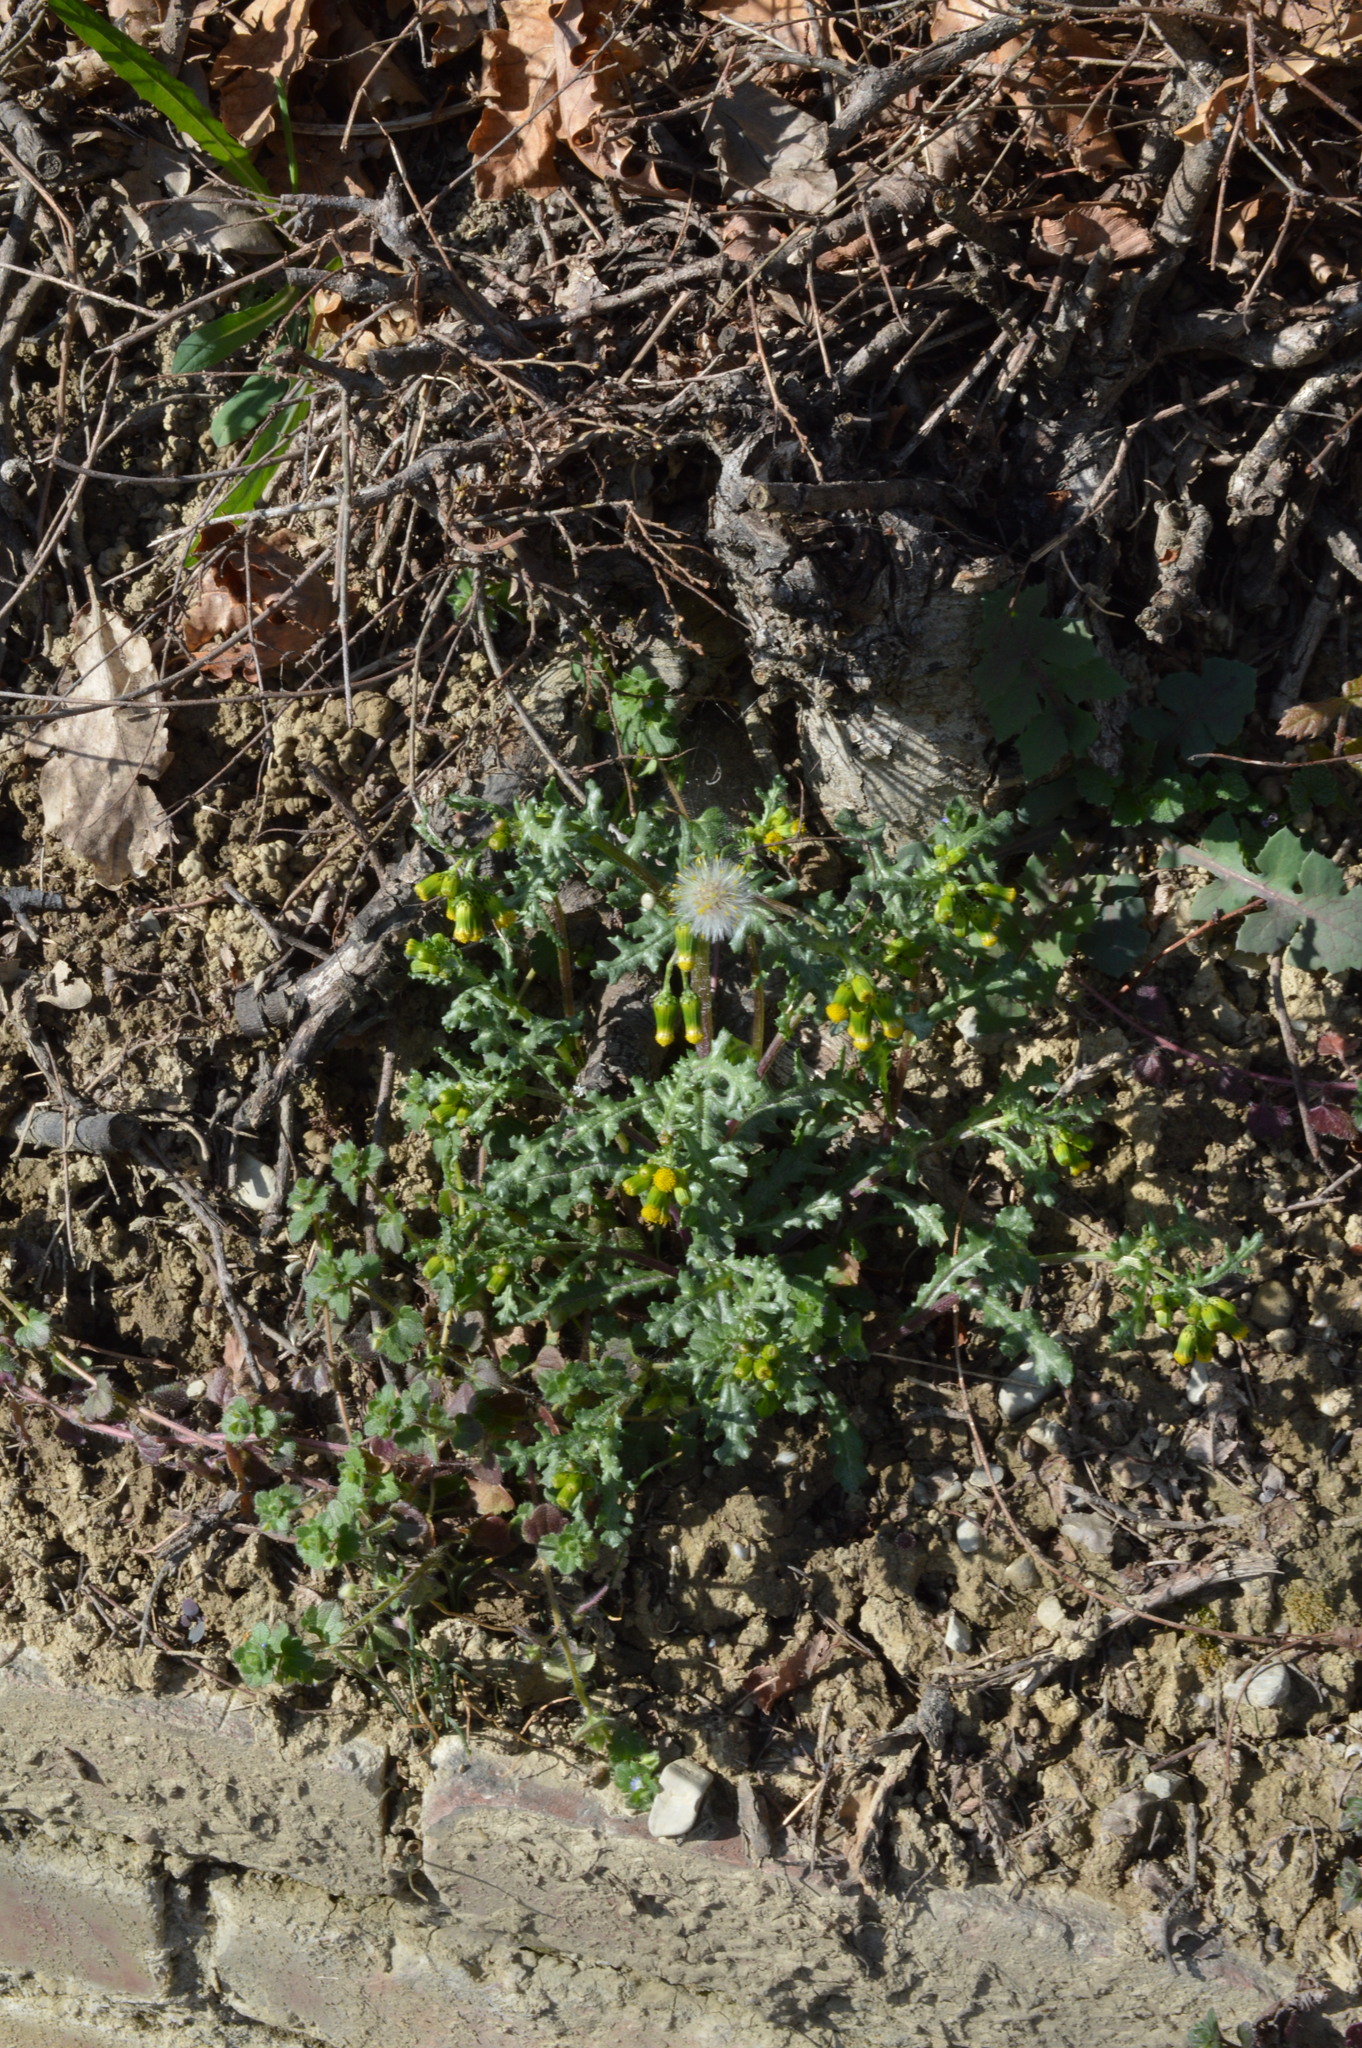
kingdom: Plantae
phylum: Tracheophyta
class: Magnoliopsida
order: Asterales
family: Asteraceae
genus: Senecio
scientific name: Senecio vulgaris
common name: Old-man-in-the-spring
